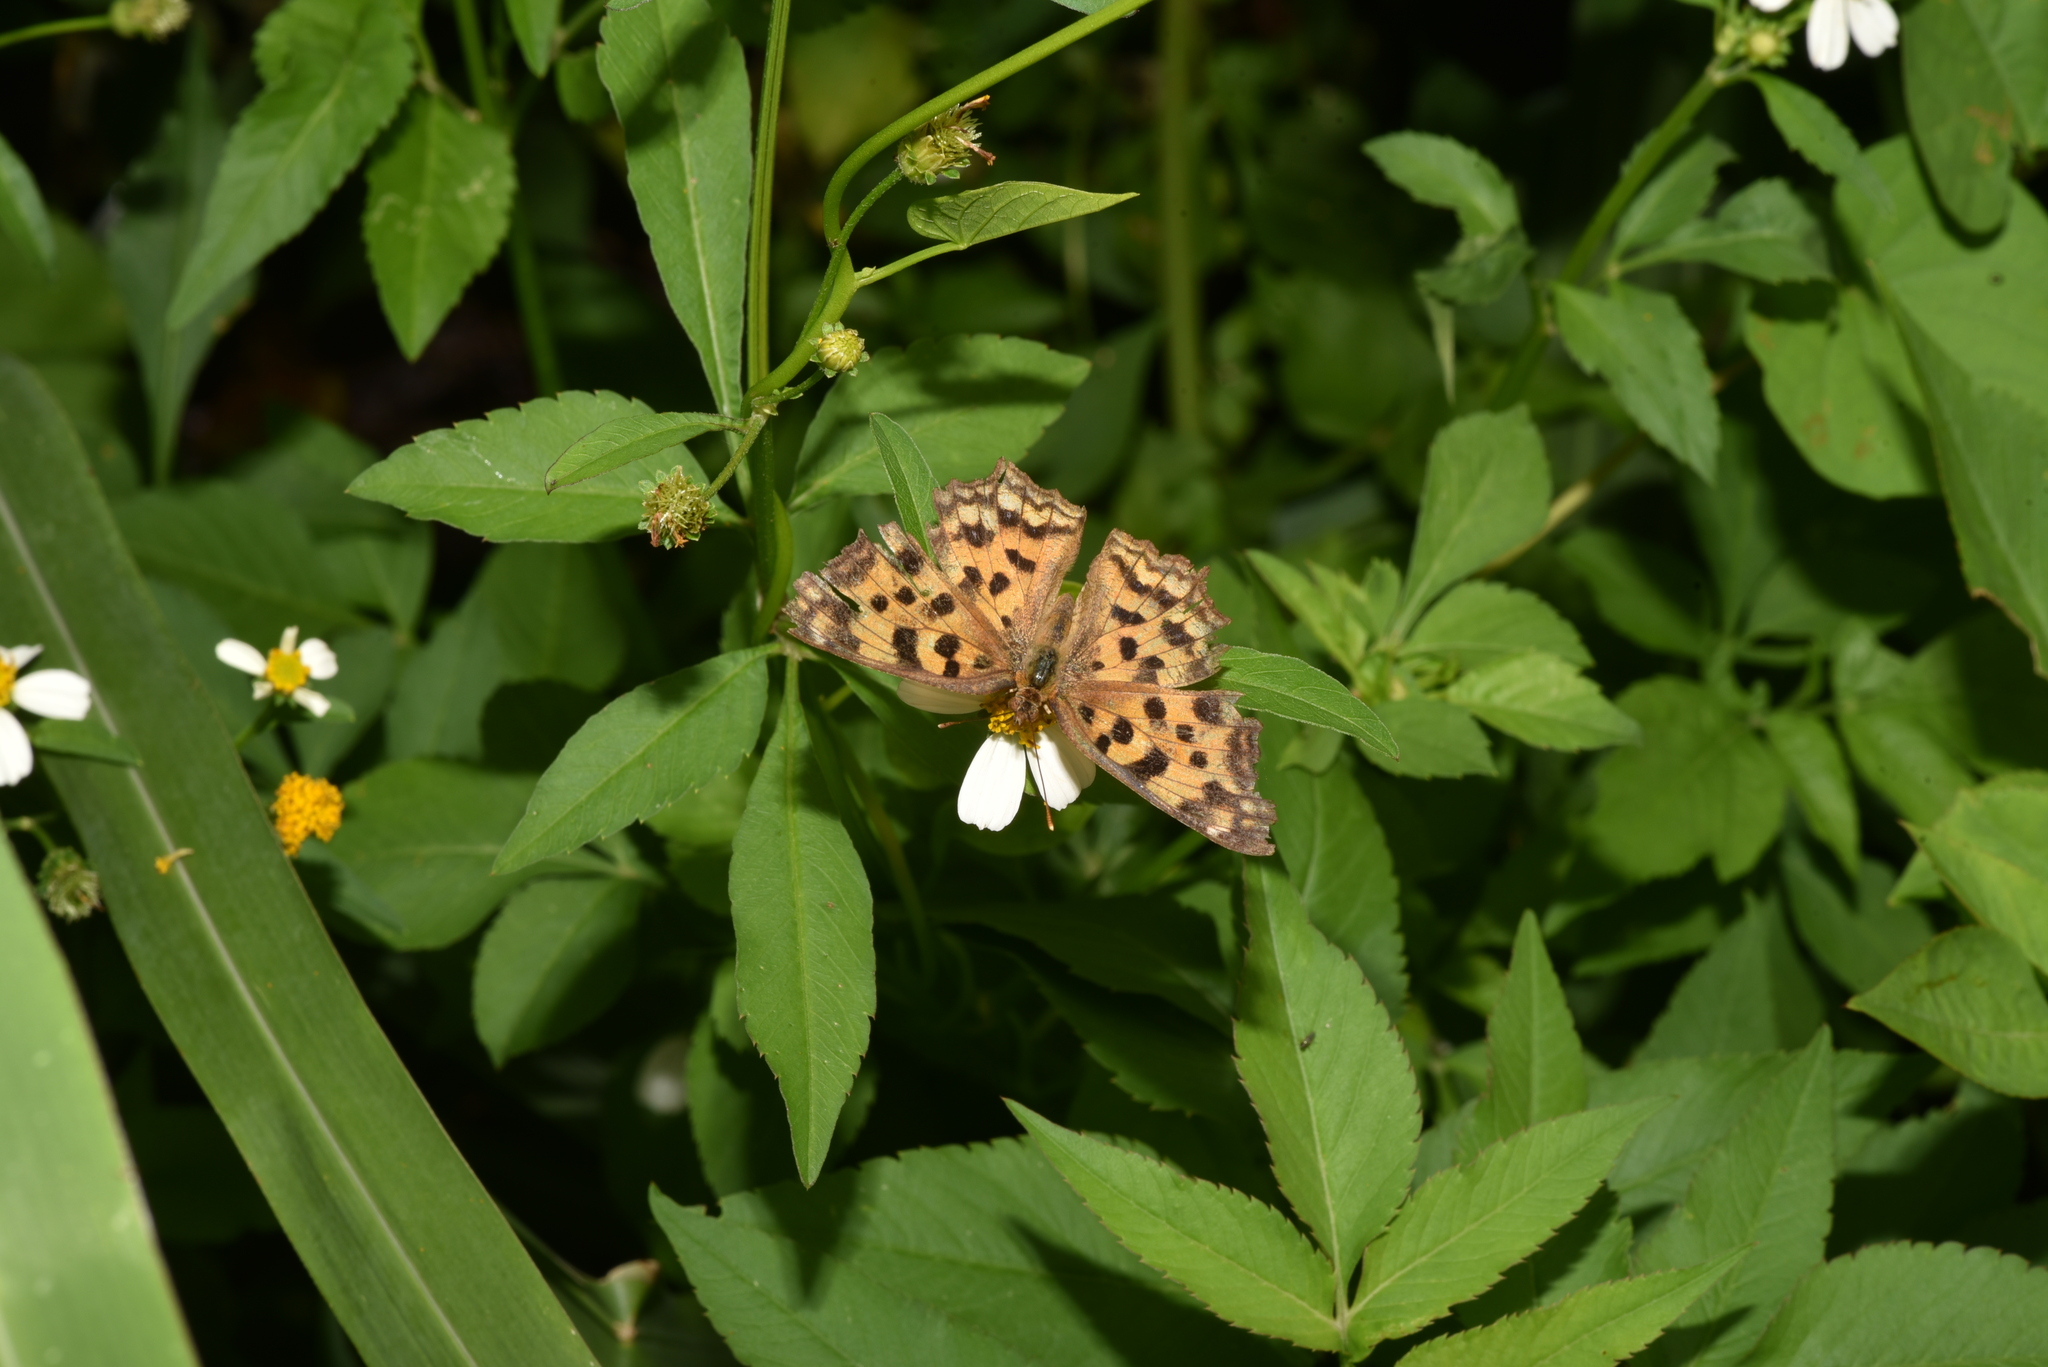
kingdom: Animalia
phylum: Arthropoda
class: Insecta
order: Lepidoptera
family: Nymphalidae
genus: Polygonia
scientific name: Polygonia c-aureum
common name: Asian comma
